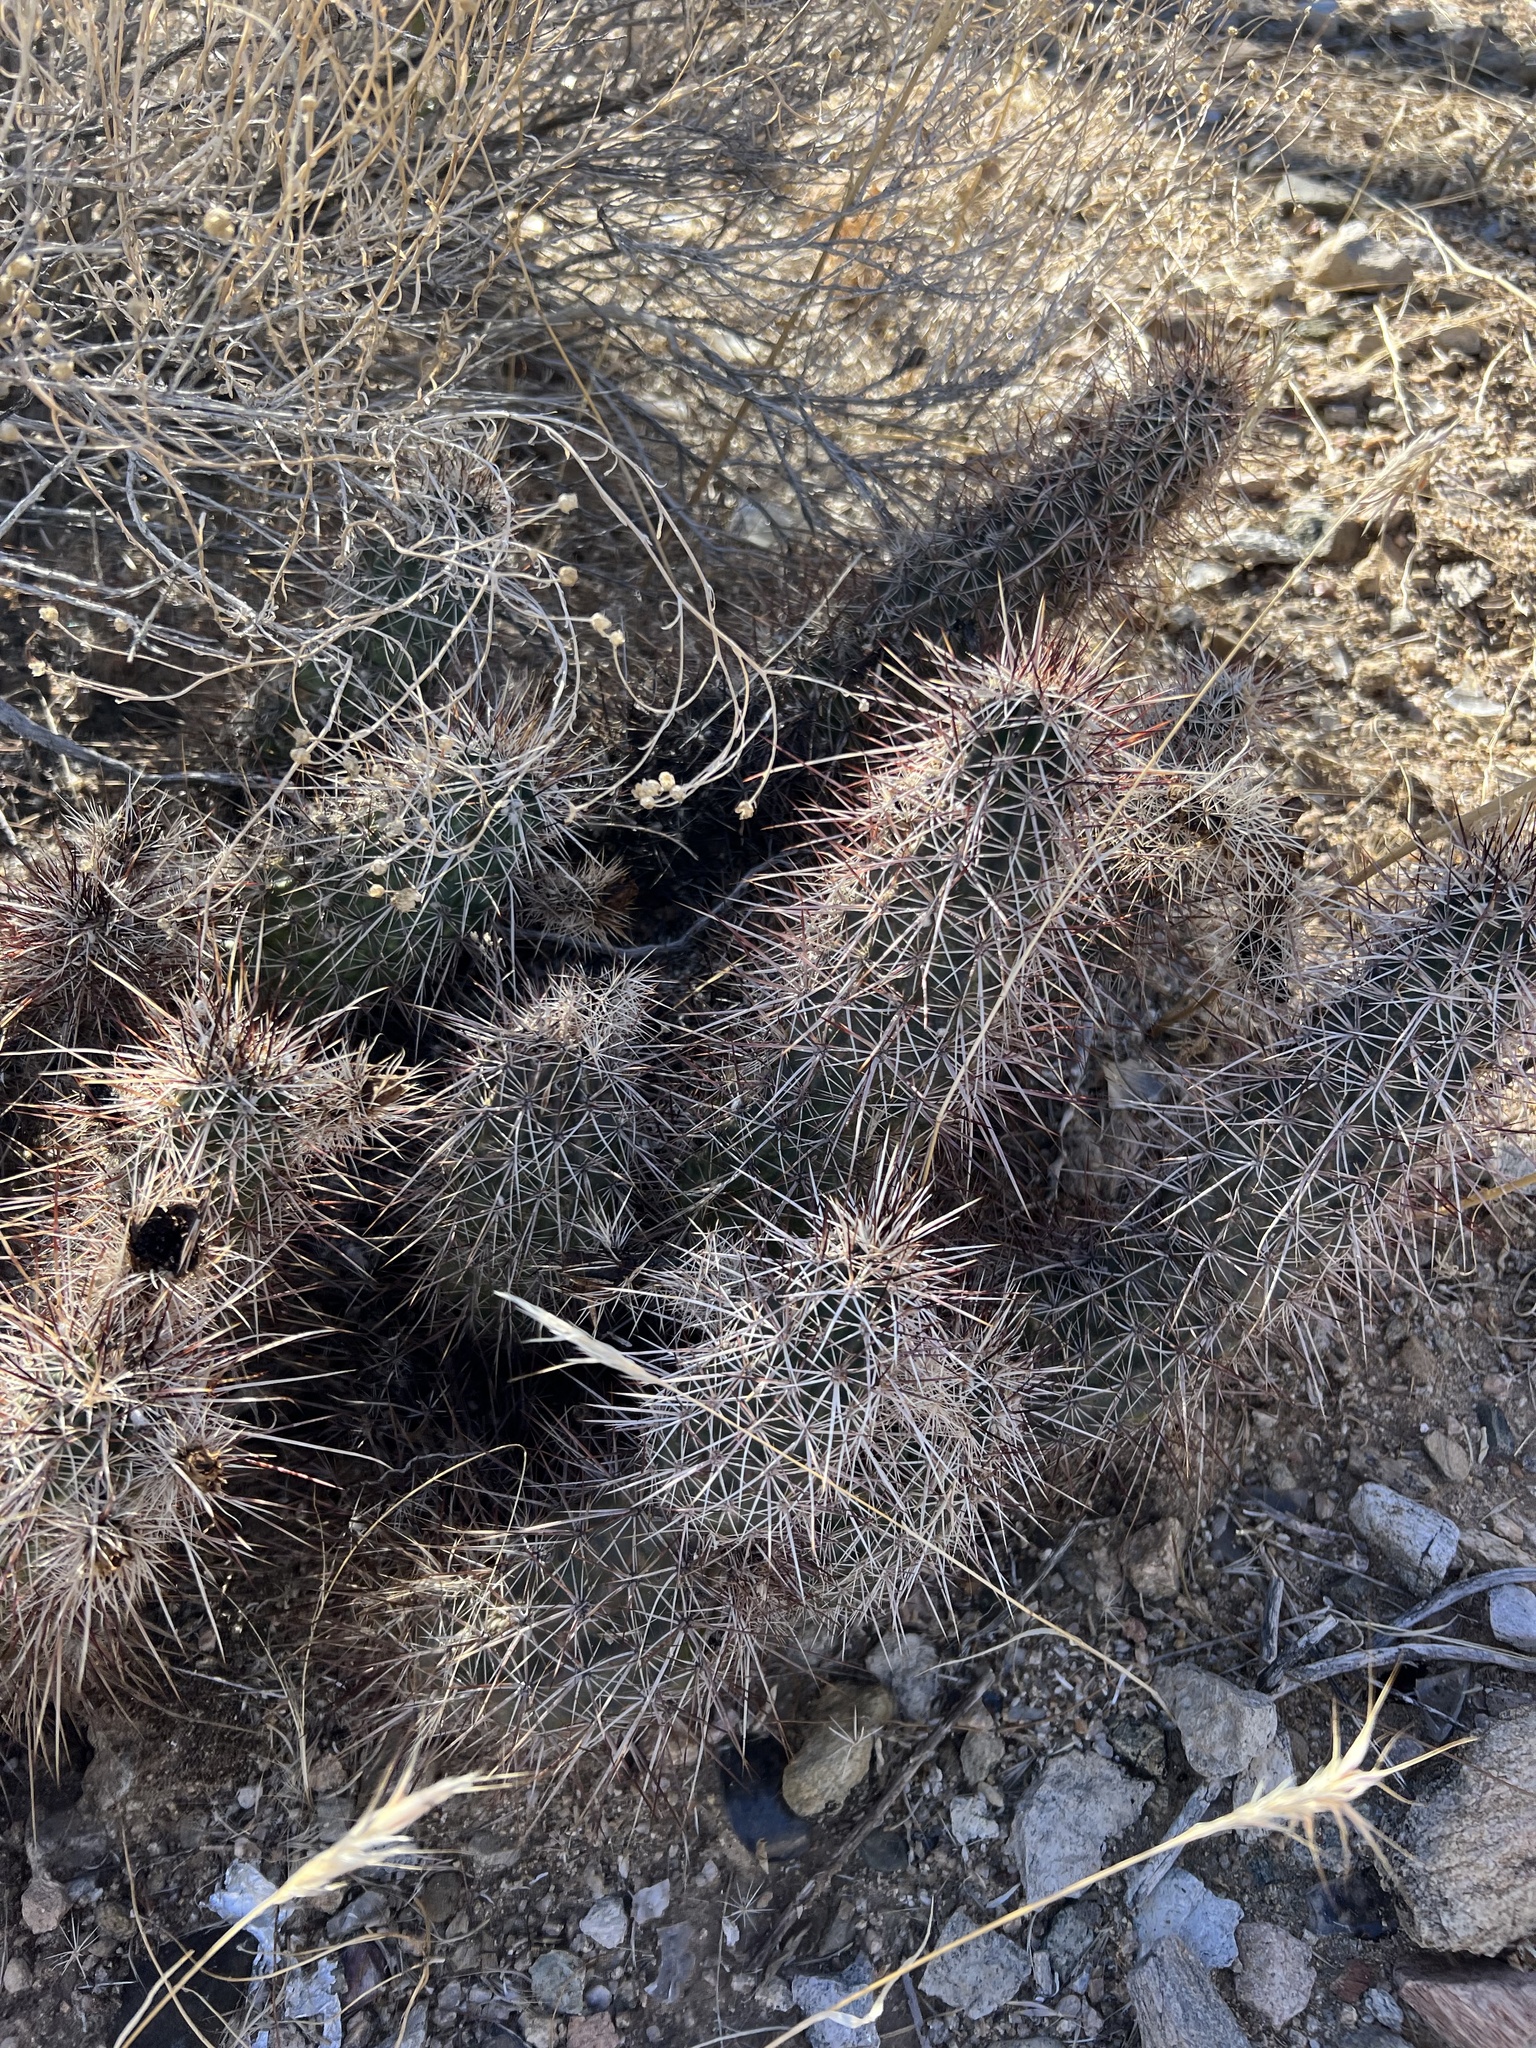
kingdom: Plantae
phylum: Tracheophyta
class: Magnoliopsida
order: Caryophyllales
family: Cactaceae
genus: Echinocereus
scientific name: Echinocereus engelmannii
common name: Engelmann's hedgehog cactus
